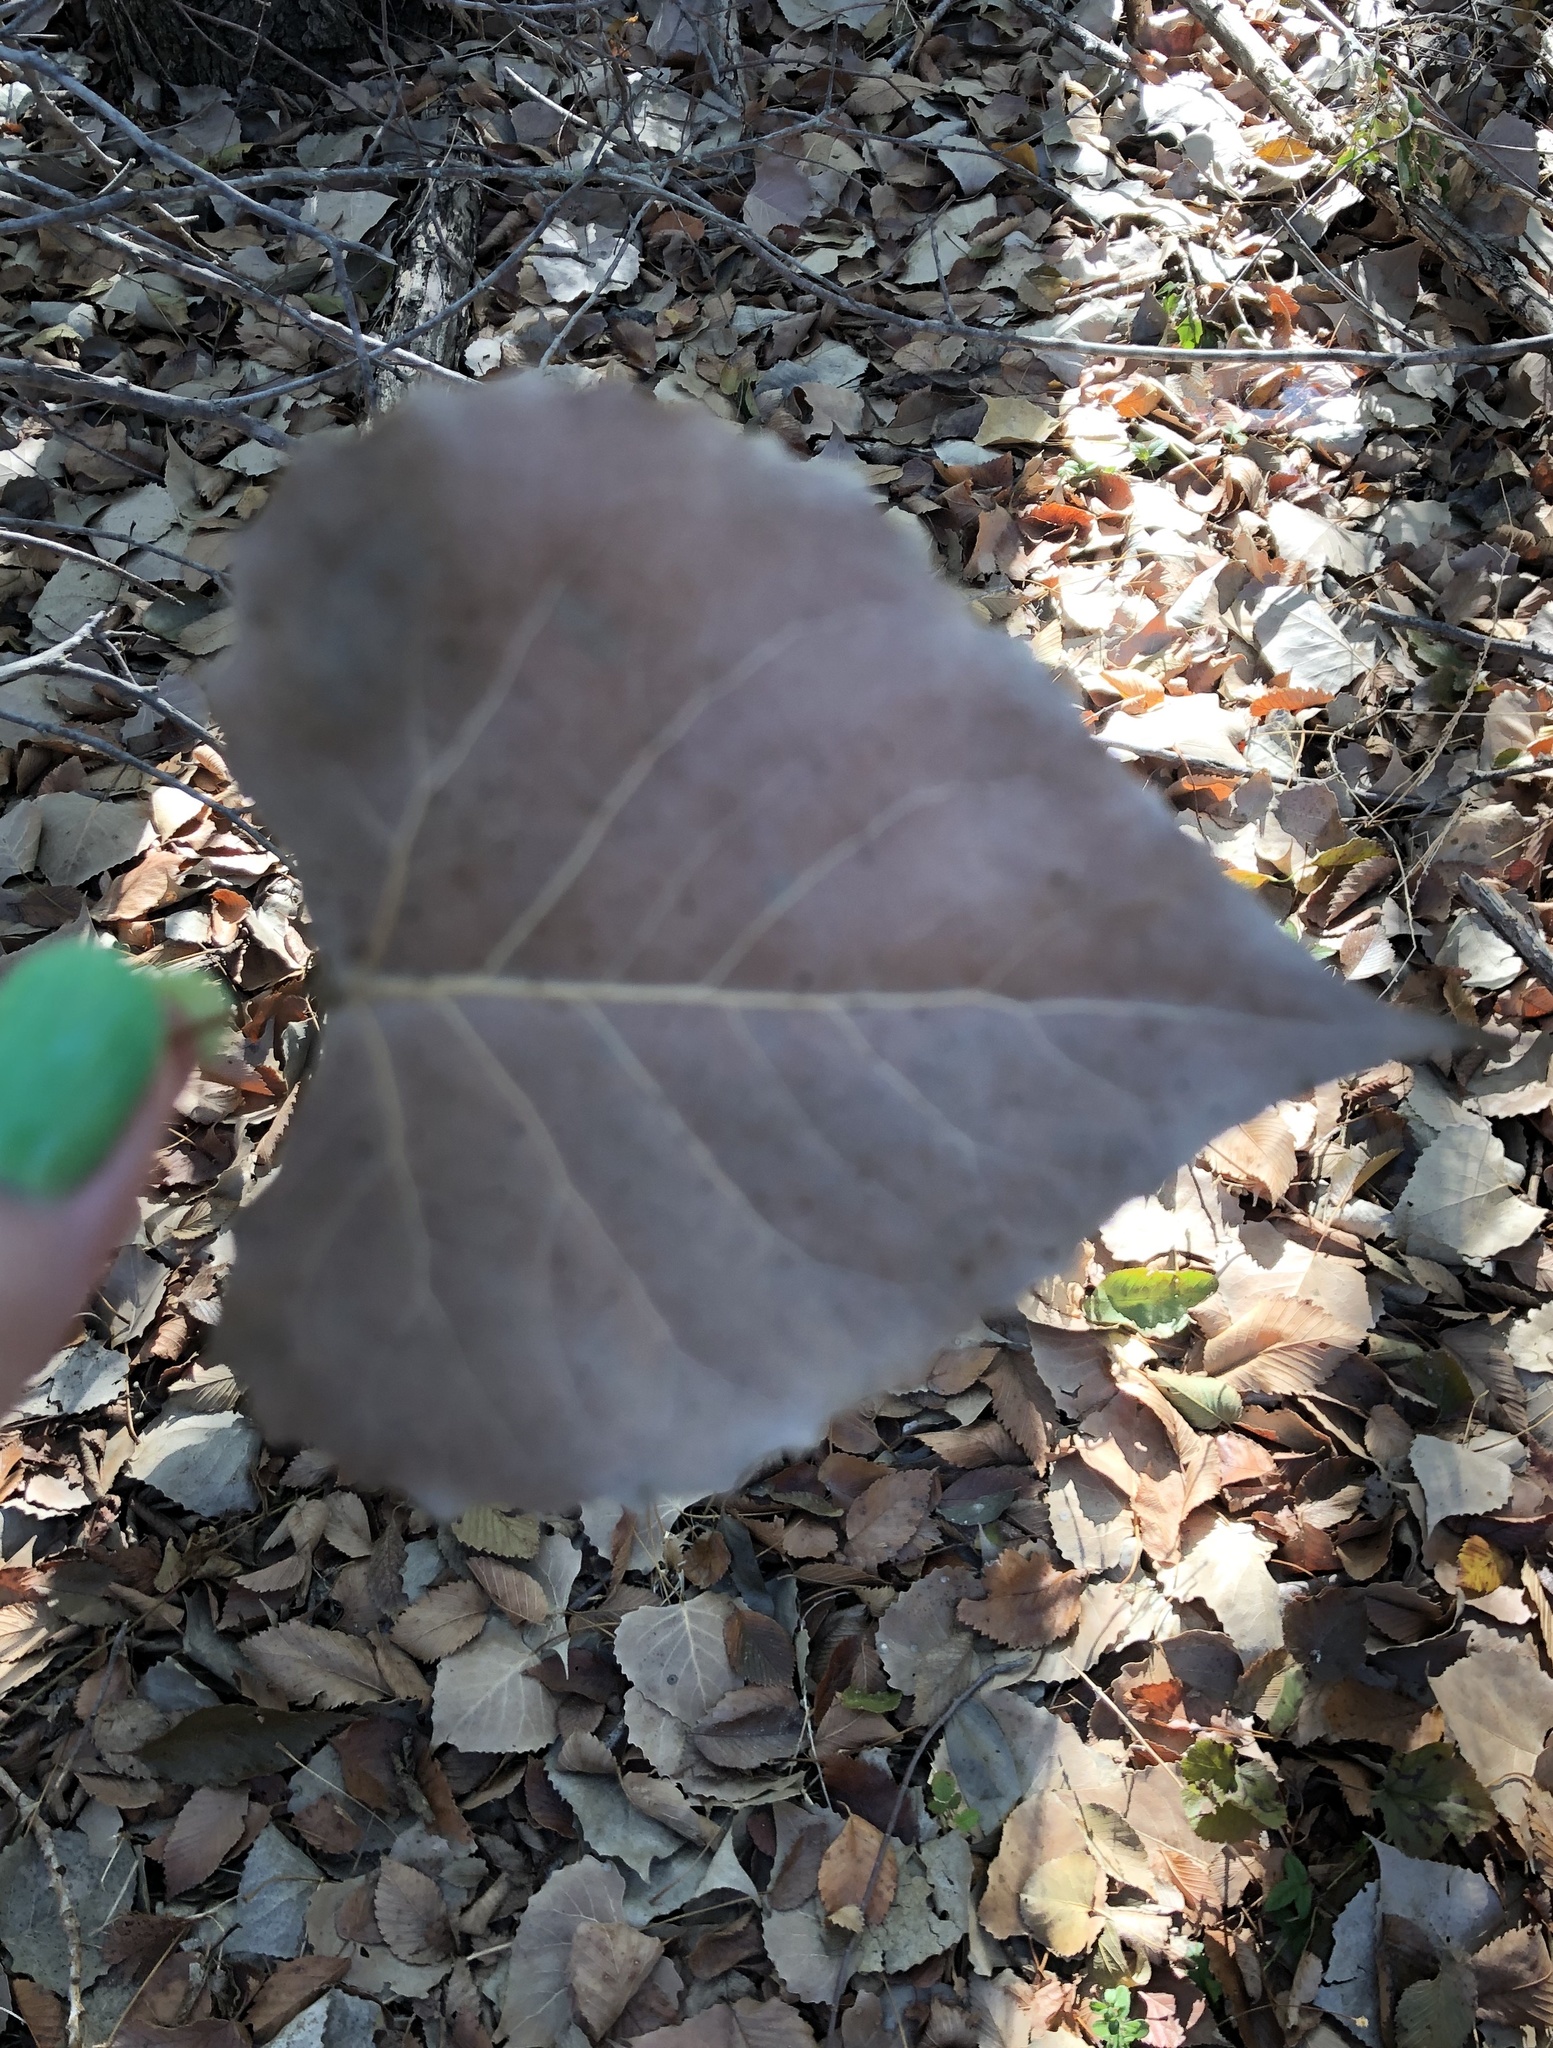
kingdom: Plantae
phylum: Tracheophyta
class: Magnoliopsida
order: Malpighiales
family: Salicaceae
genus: Populus
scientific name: Populus deltoides
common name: Eastern cottonwood
